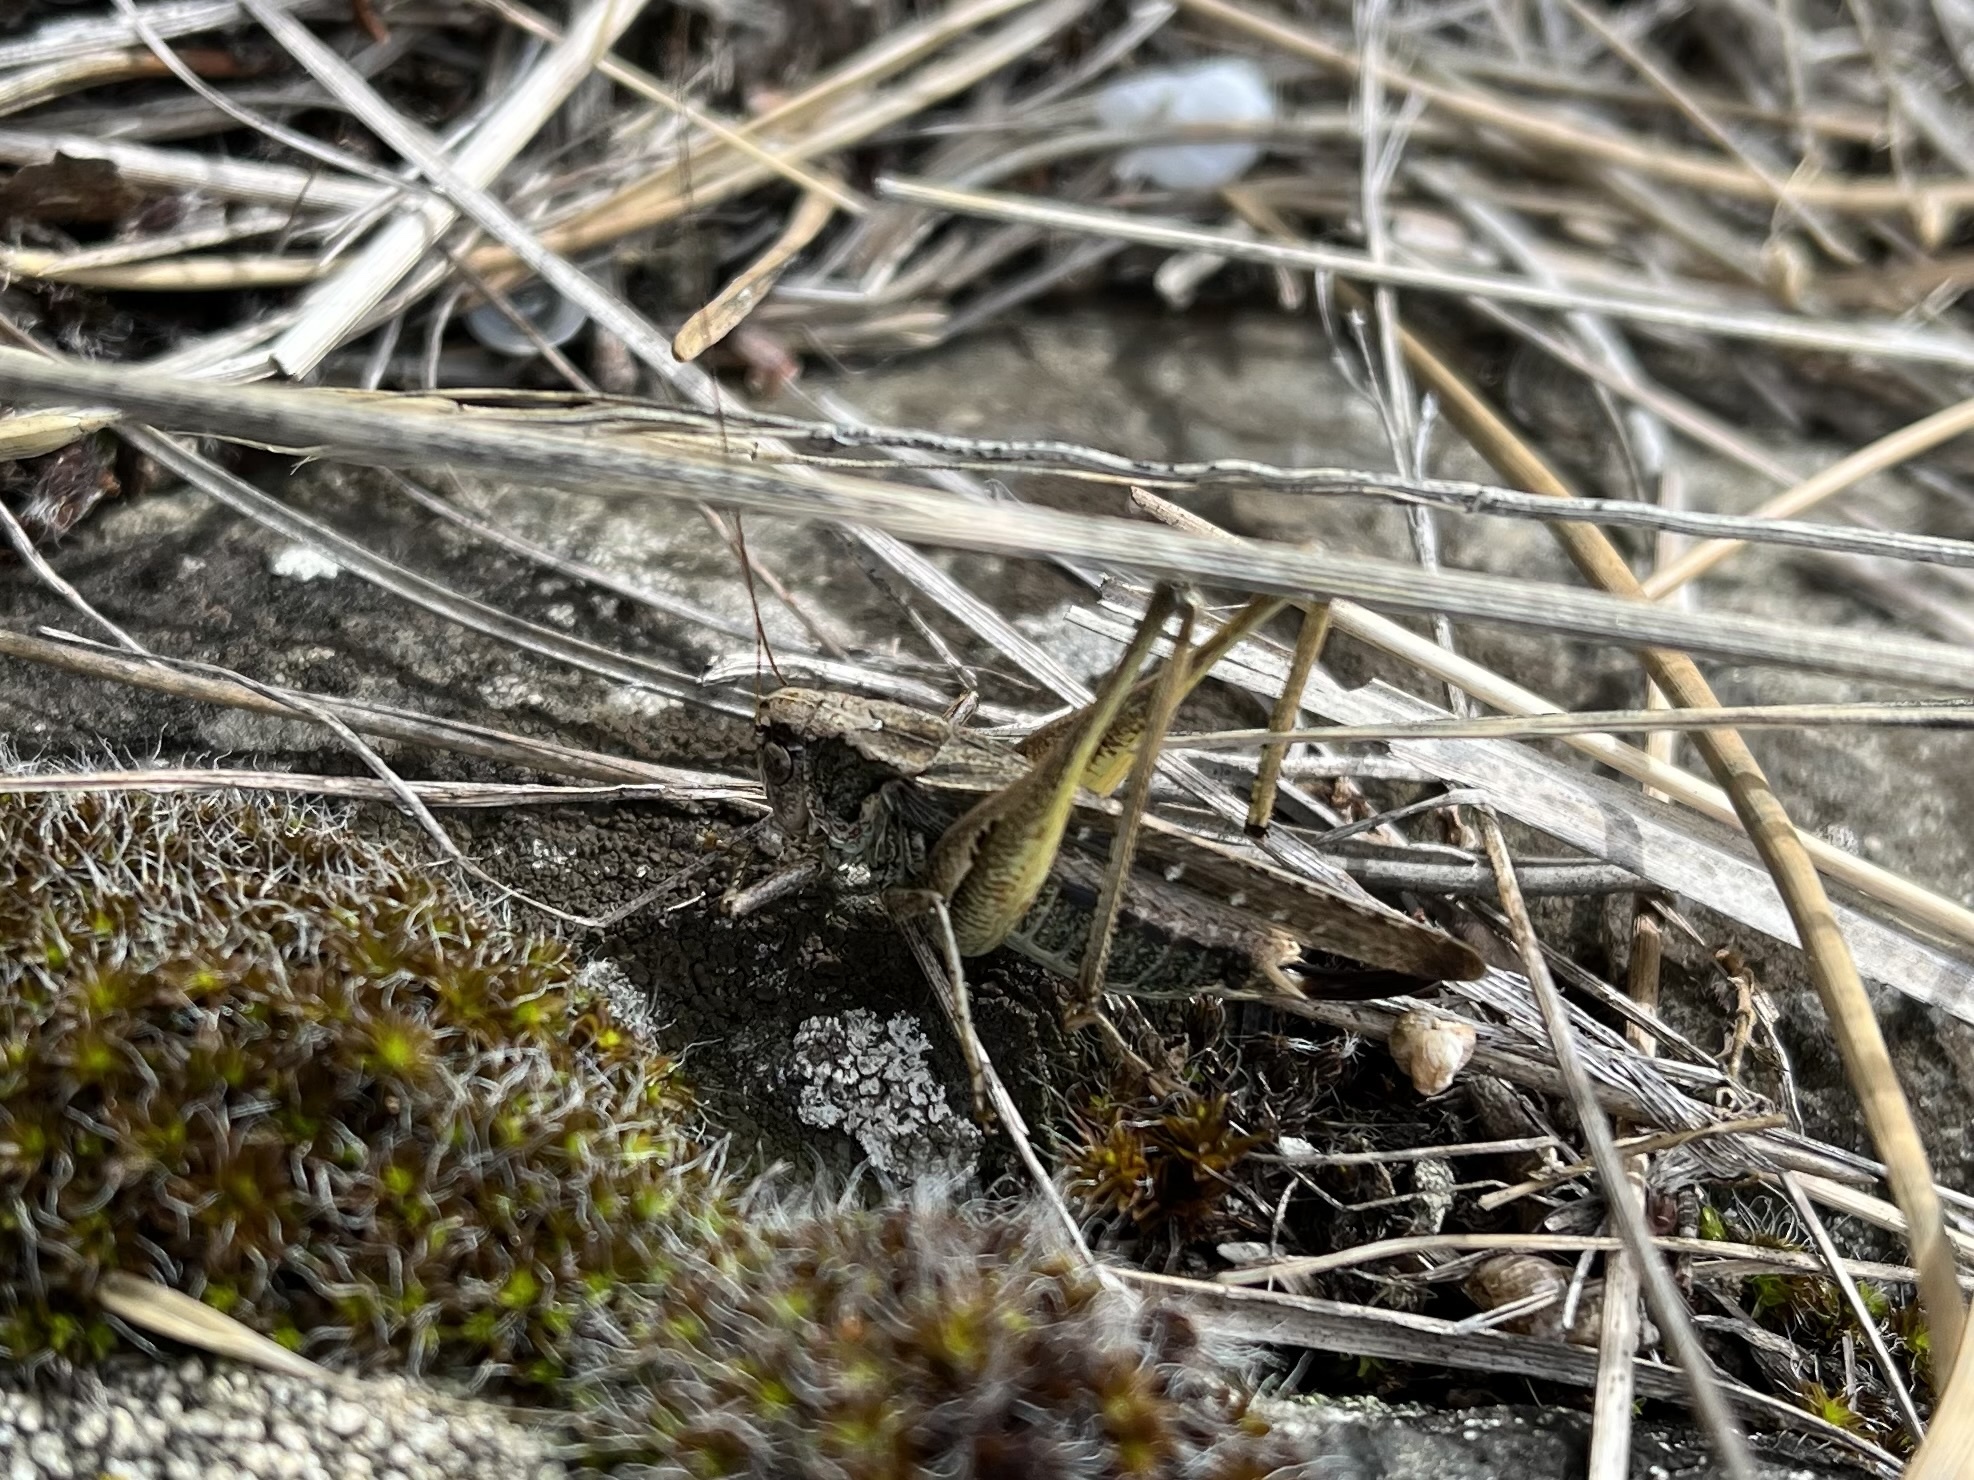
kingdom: Animalia
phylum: Arthropoda
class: Insecta
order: Orthoptera
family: Tettigoniidae
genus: Platycleis
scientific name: Platycleis albopunctata
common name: Grey bush-cricket
